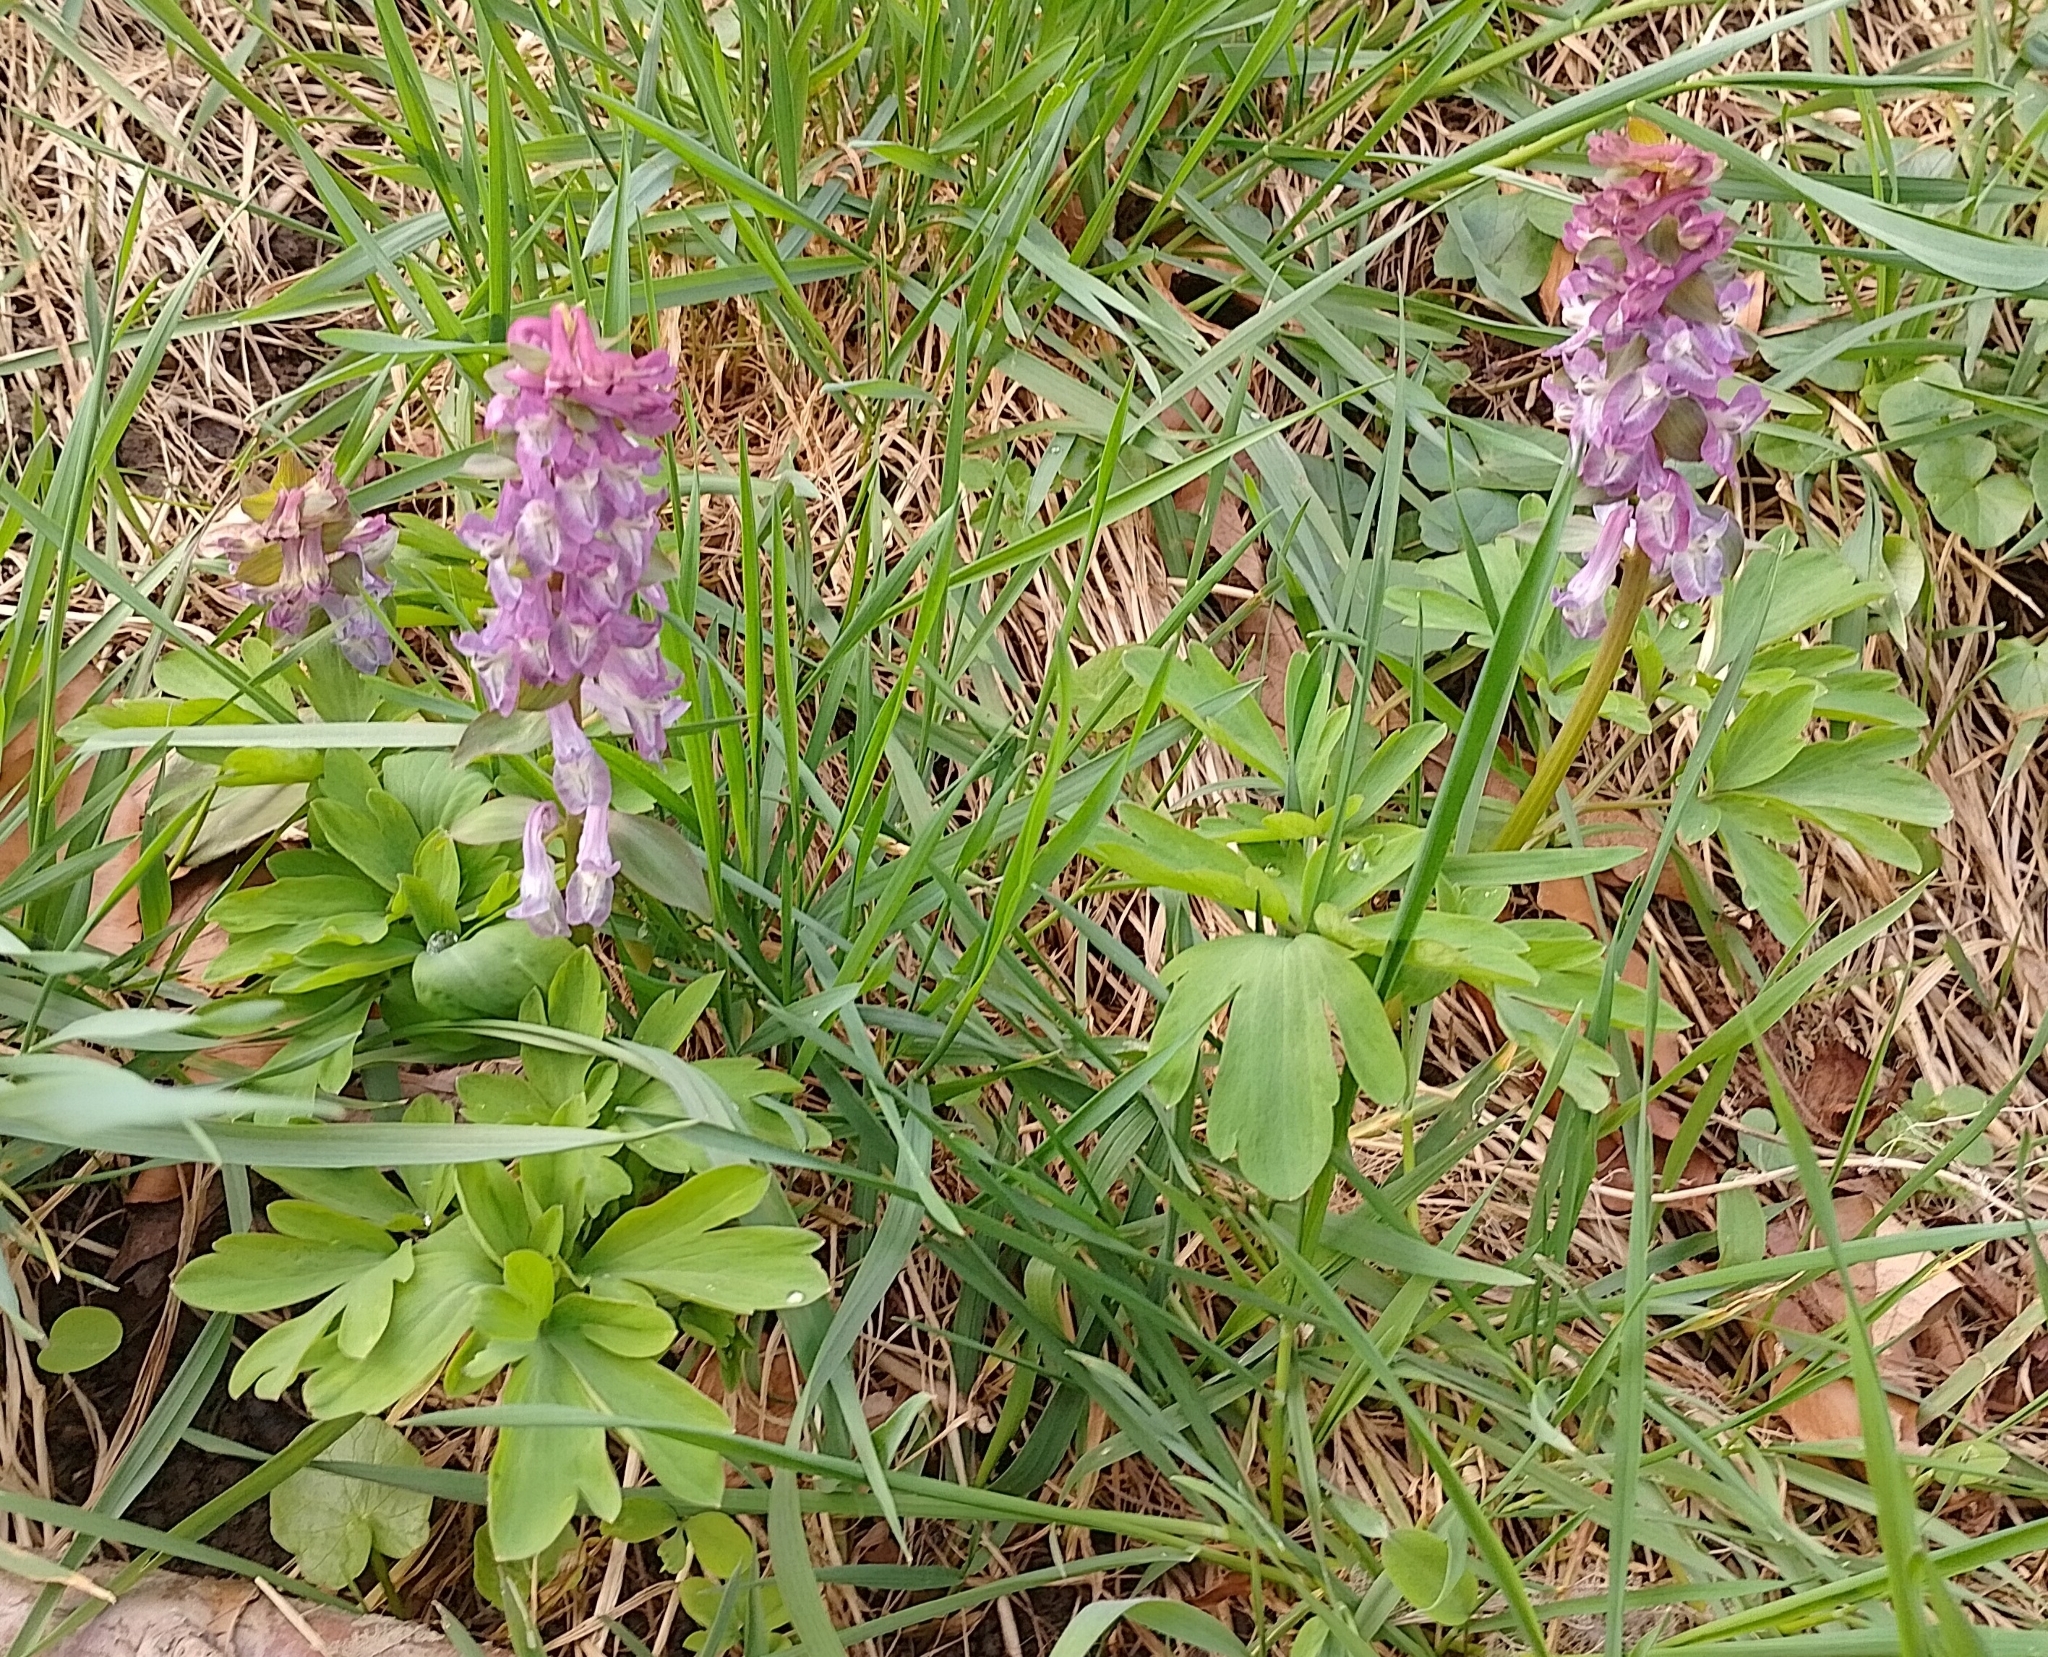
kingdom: Plantae
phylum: Tracheophyta
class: Magnoliopsida
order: Ranunculales
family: Papaveraceae
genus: Corydalis
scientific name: Corydalis cava
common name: Hollowroot
